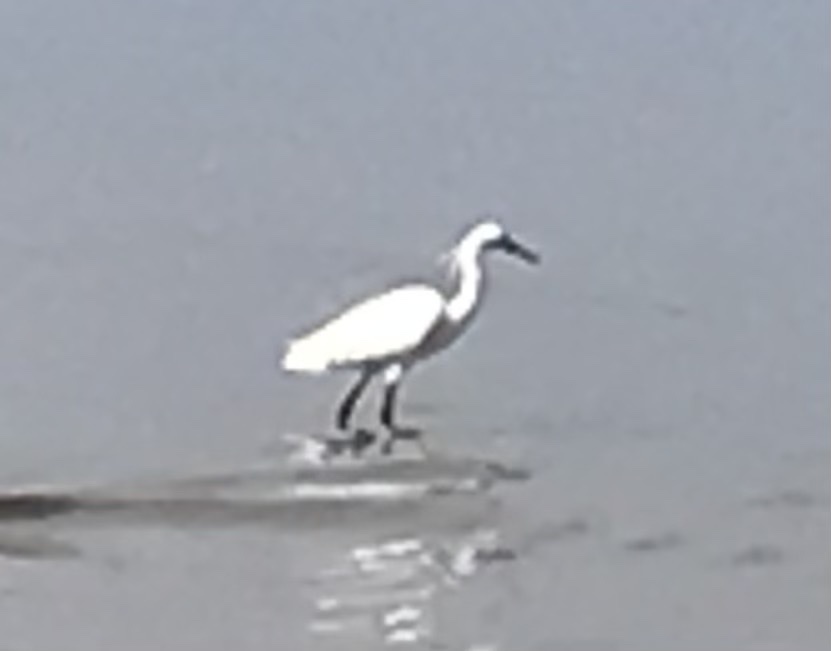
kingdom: Animalia
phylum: Chordata
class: Aves
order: Pelecaniformes
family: Ardeidae
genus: Egretta
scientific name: Egretta garzetta
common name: Little egret
